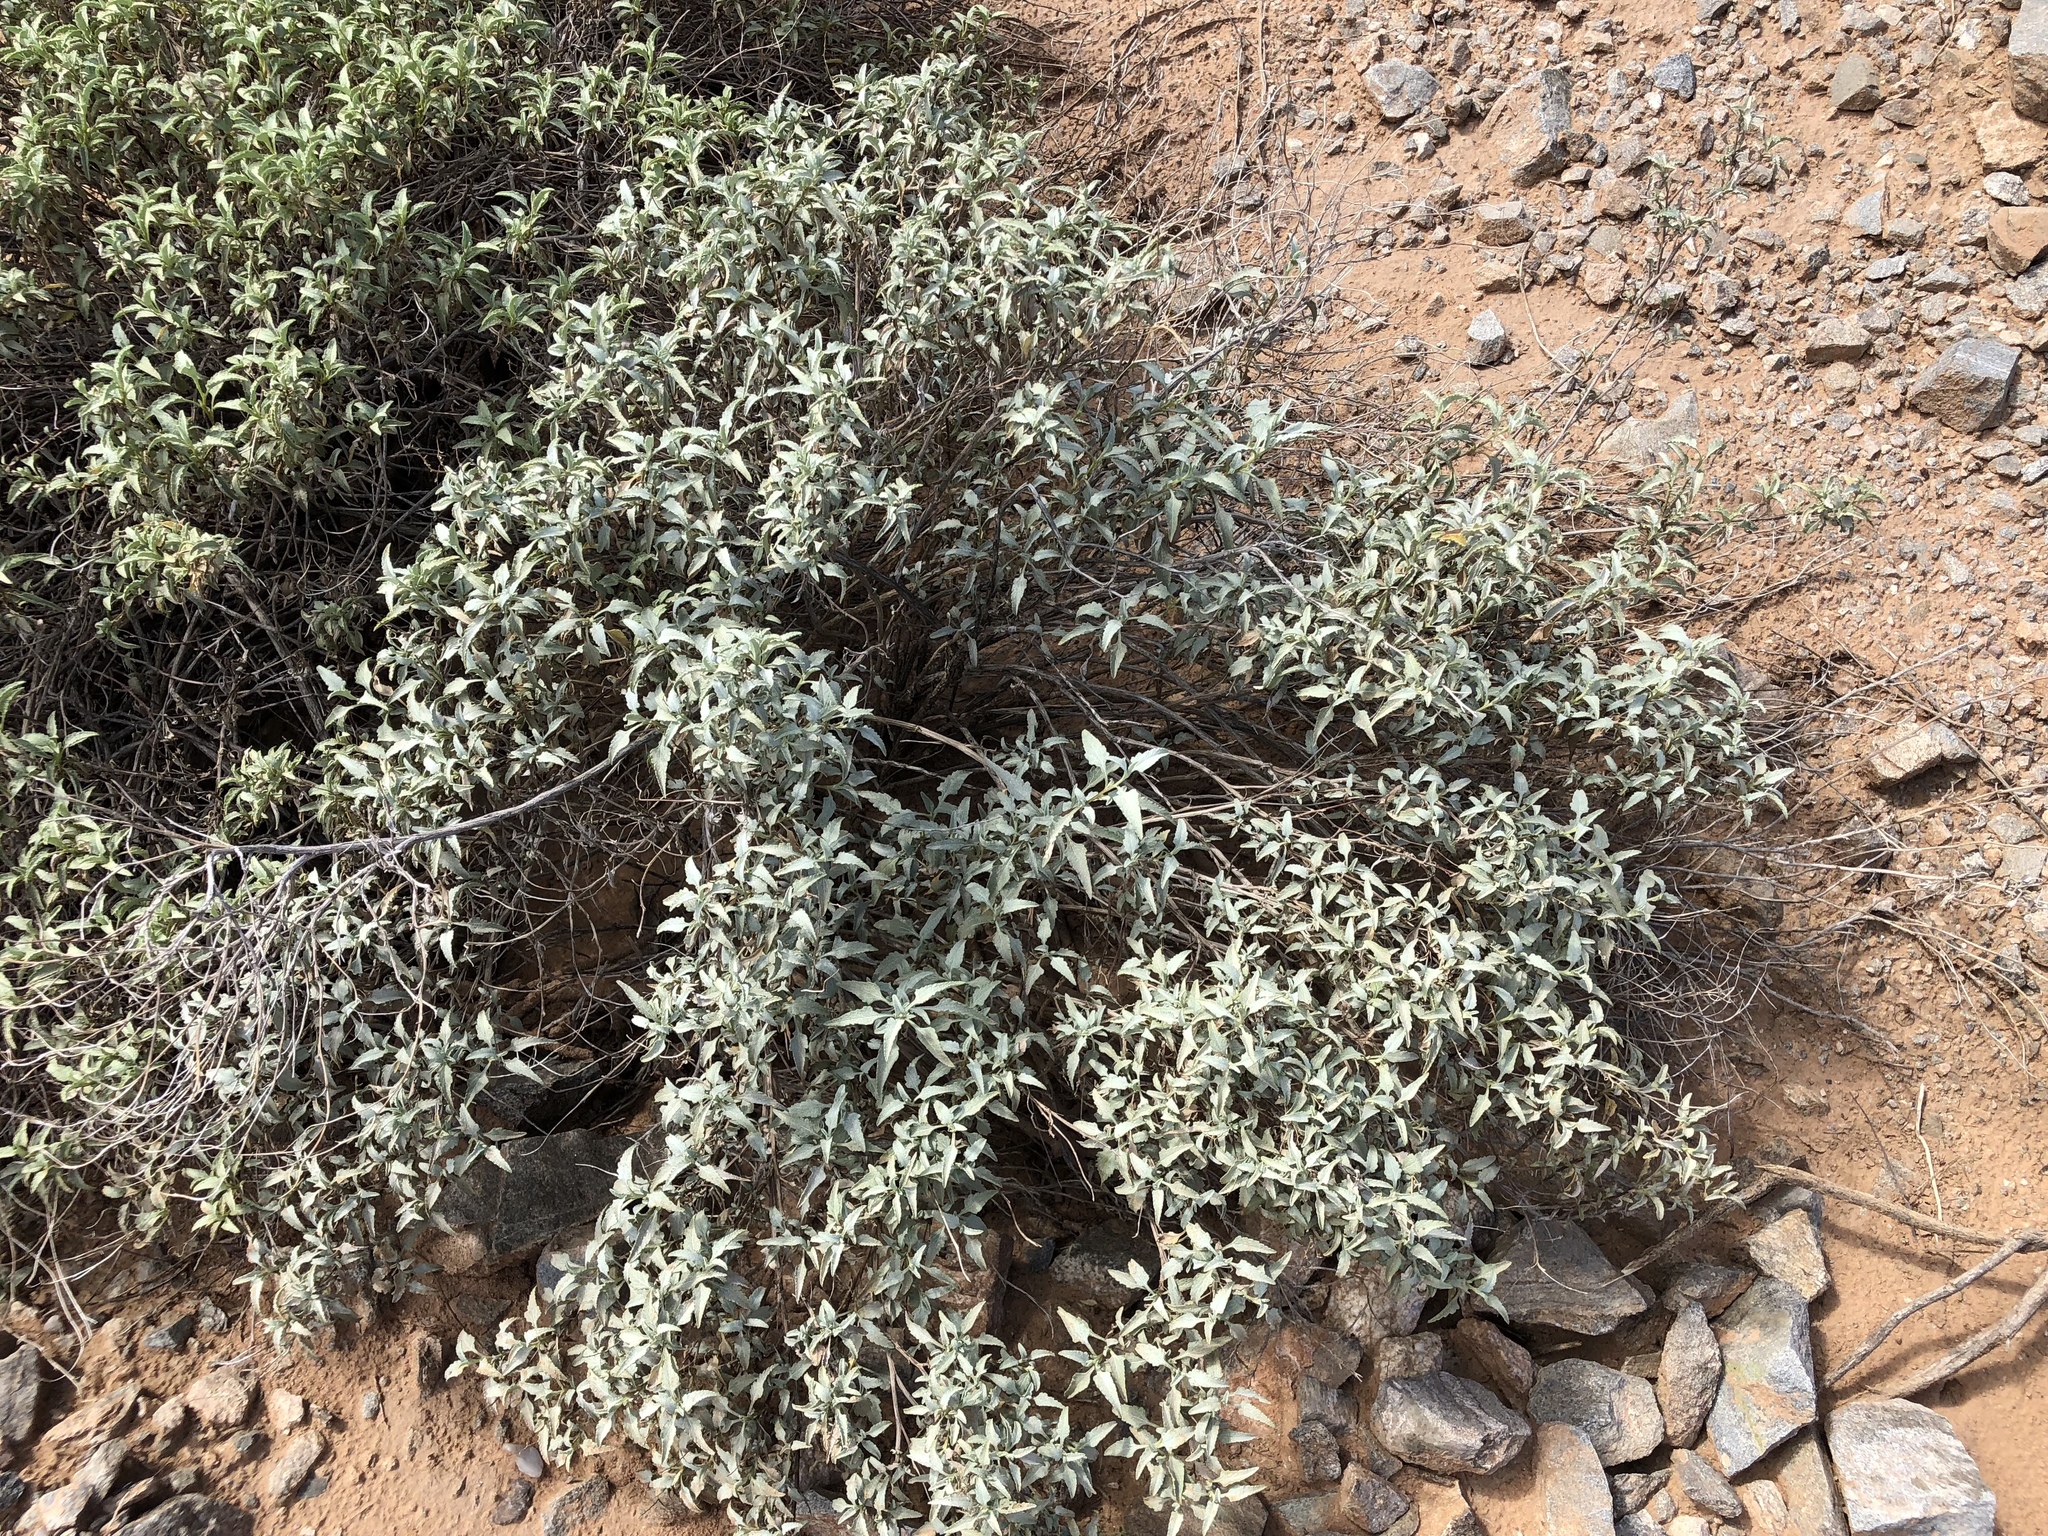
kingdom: Plantae
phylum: Tracheophyta
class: Magnoliopsida
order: Asterales
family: Asteraceae
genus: Ambrosia
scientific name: Ambrosia deltoidea
